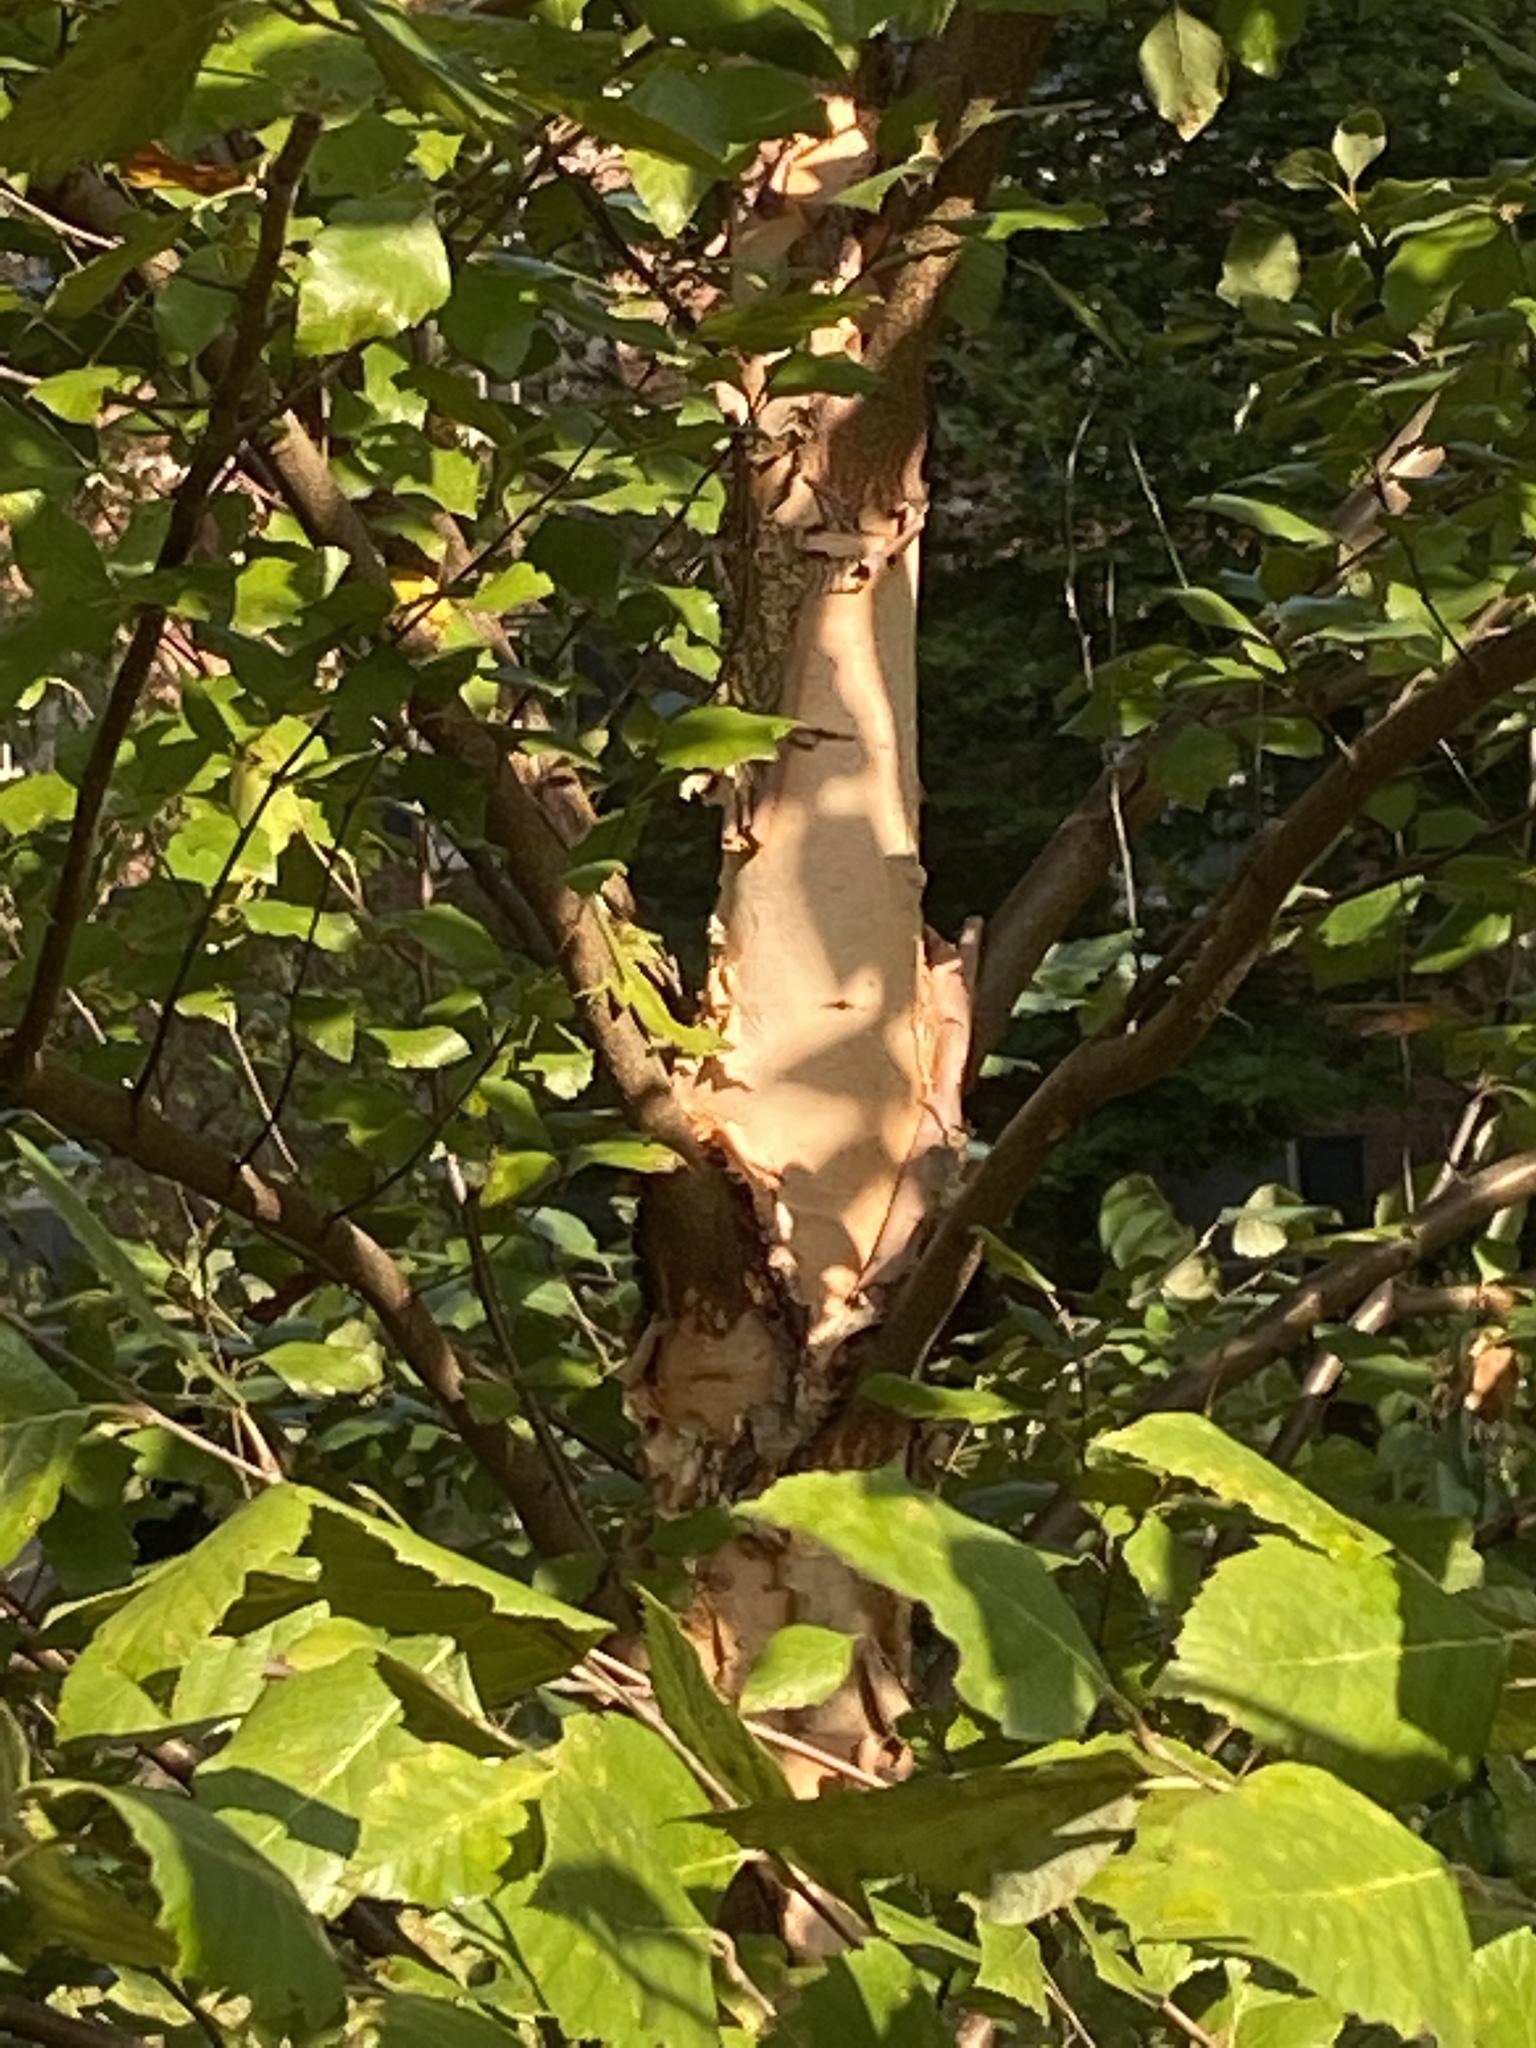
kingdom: Animalia
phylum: Chordata
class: Squamata
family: Dactyloidae
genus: Anolis
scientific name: Anolis carolinensis
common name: Green anole
